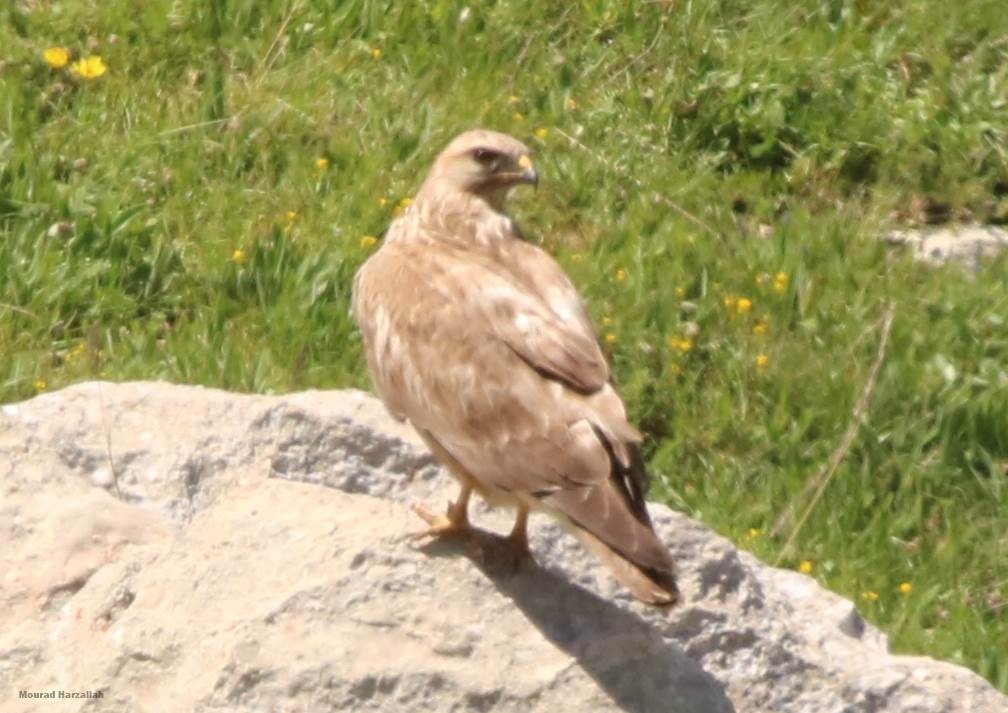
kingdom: Animalia
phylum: Chordata
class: Aves
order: Accipitriformes
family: Accipitridae
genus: Buteo
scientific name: Buteo rufinus
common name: Long-legged buzzard
